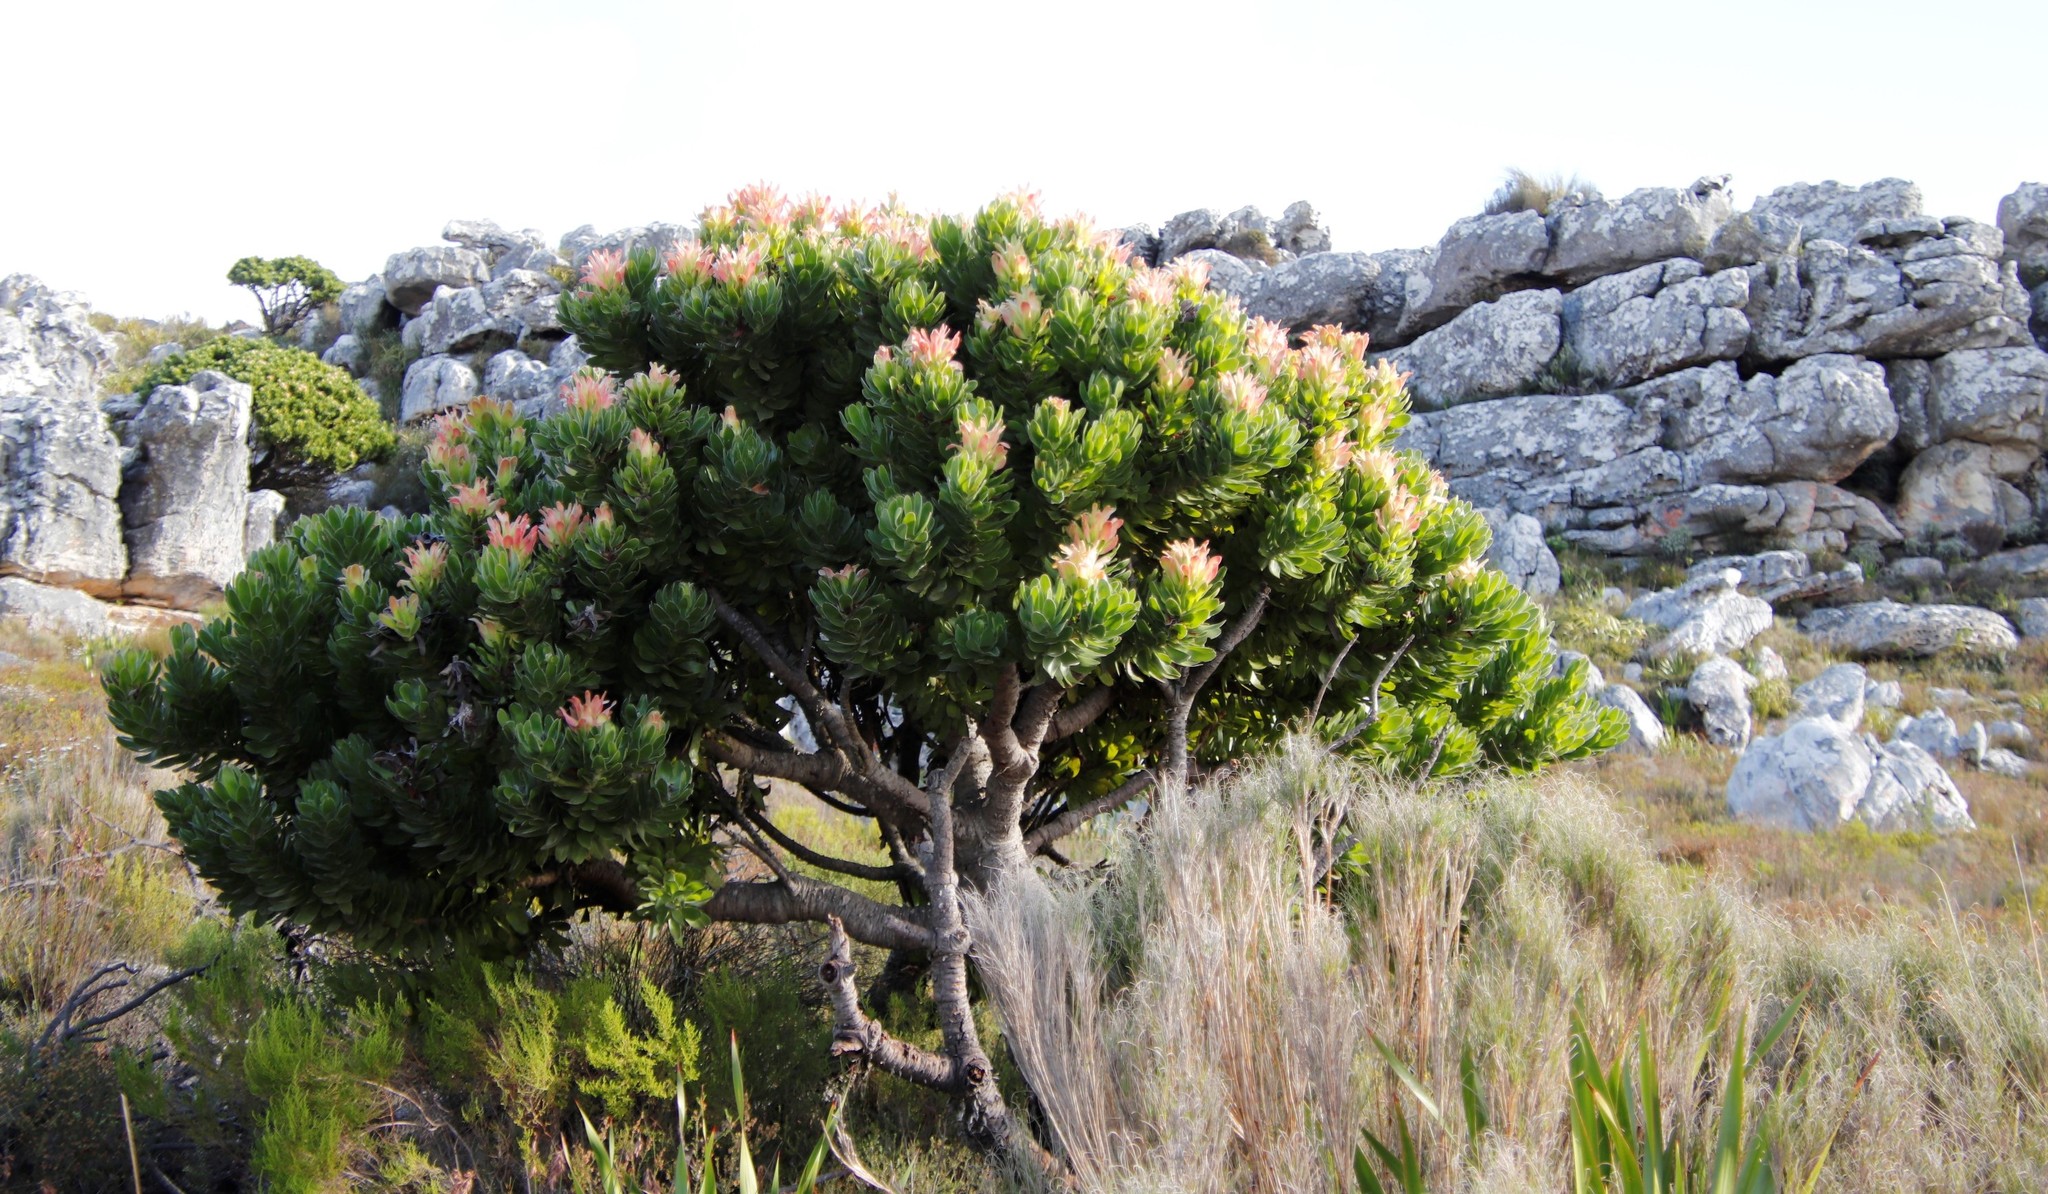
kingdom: Plantae
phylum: Tracheophyta
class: Magnoliopsida
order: Proteales
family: Proteaceae
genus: Mimetes
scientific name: Mimetes fimbriifolius
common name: Fringed bottlebrush
